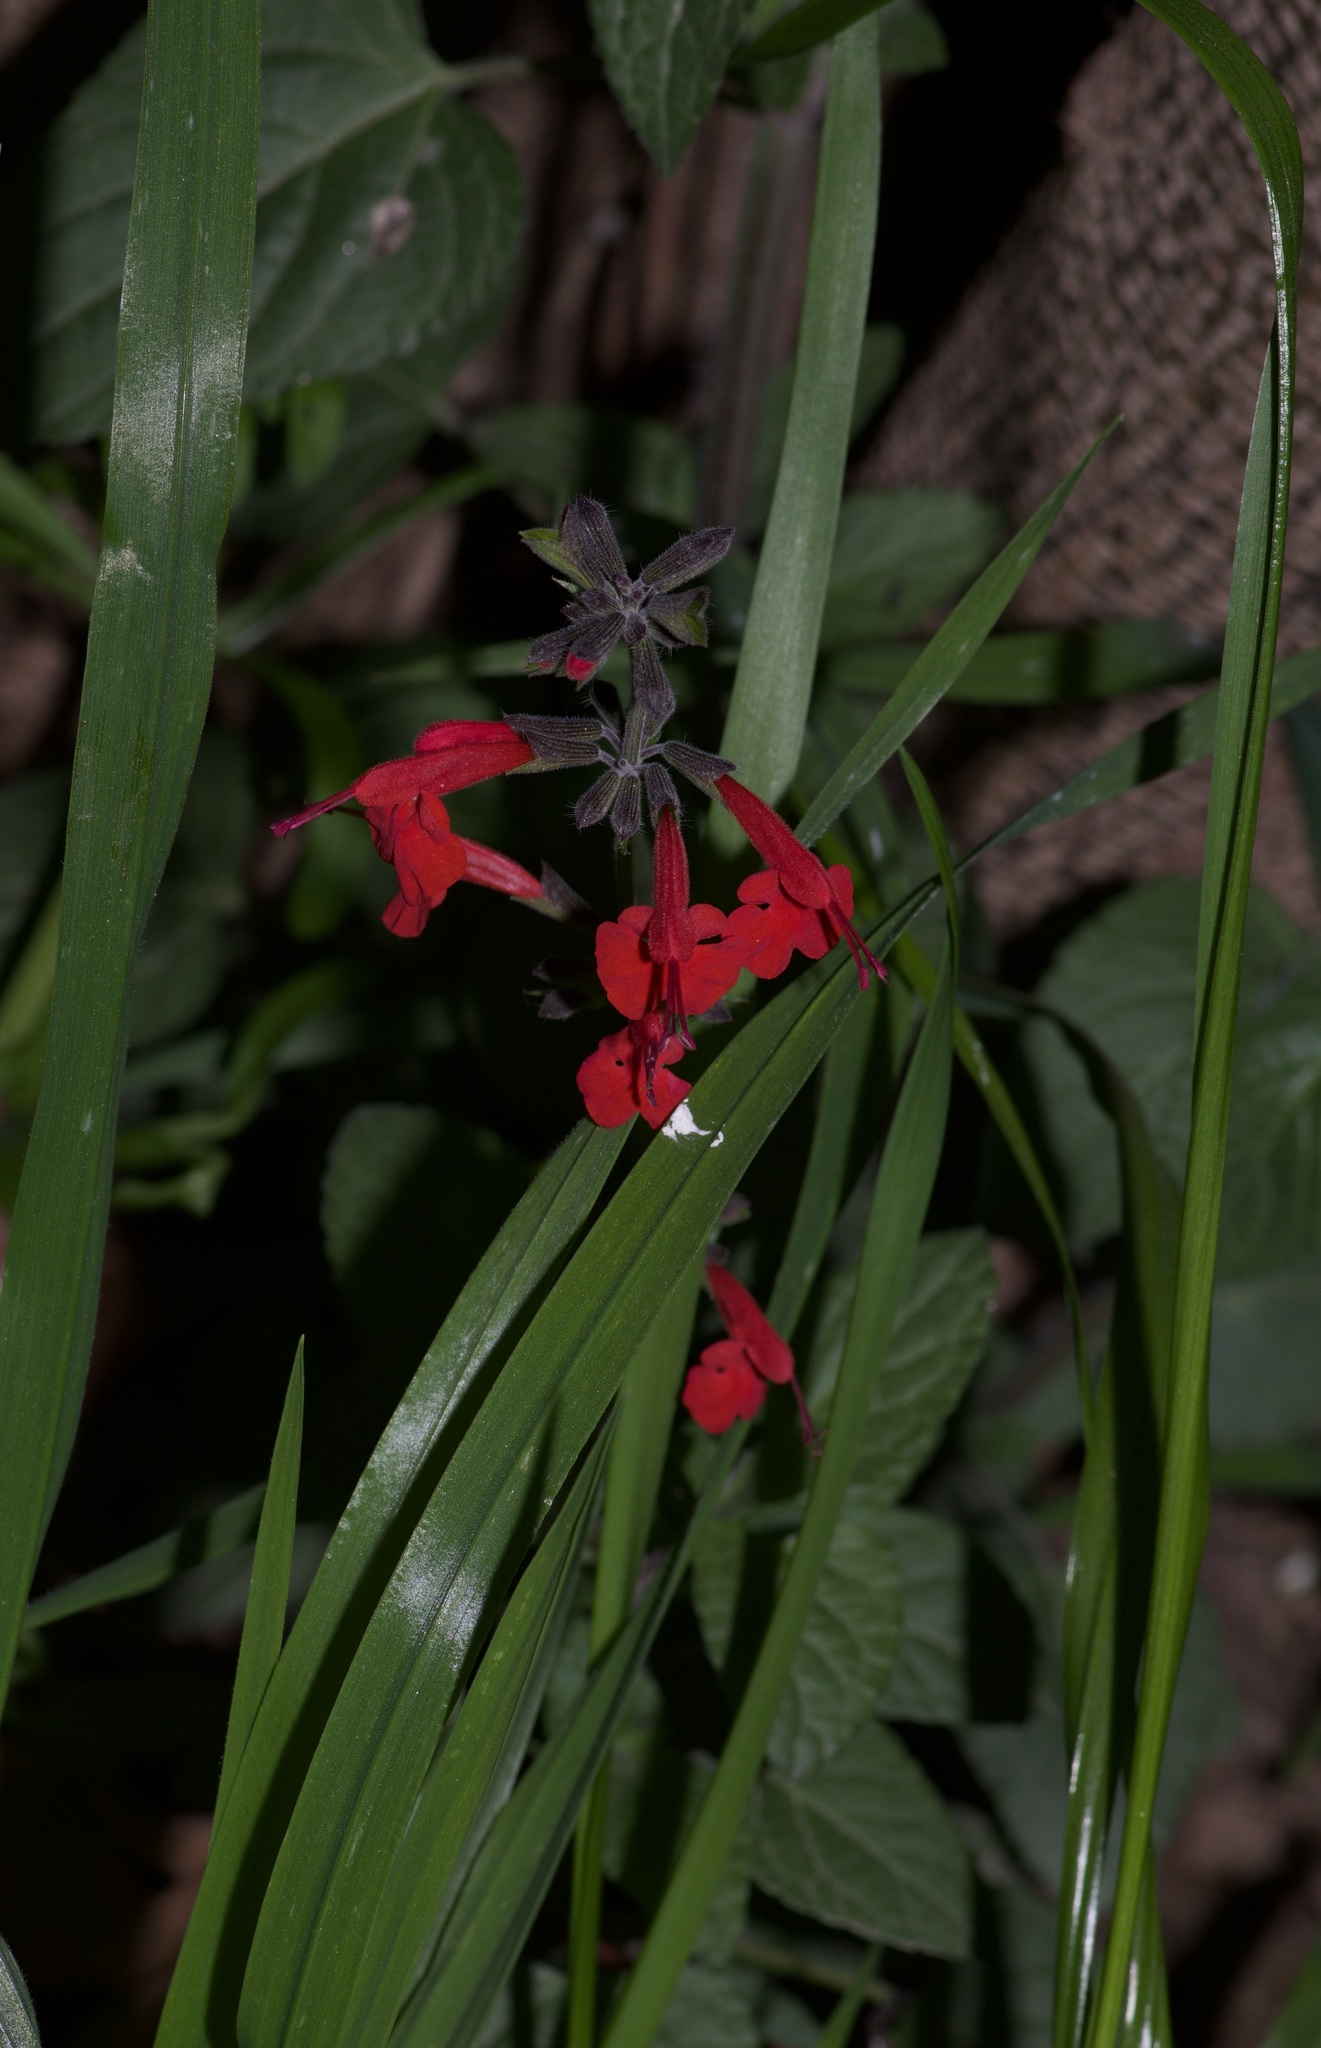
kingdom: Plantae
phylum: Tracheophyta
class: Magnoliopsida
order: Lamiales
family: Lamiaceae
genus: Salvia
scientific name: Salvia coccinea
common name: Blood sage
